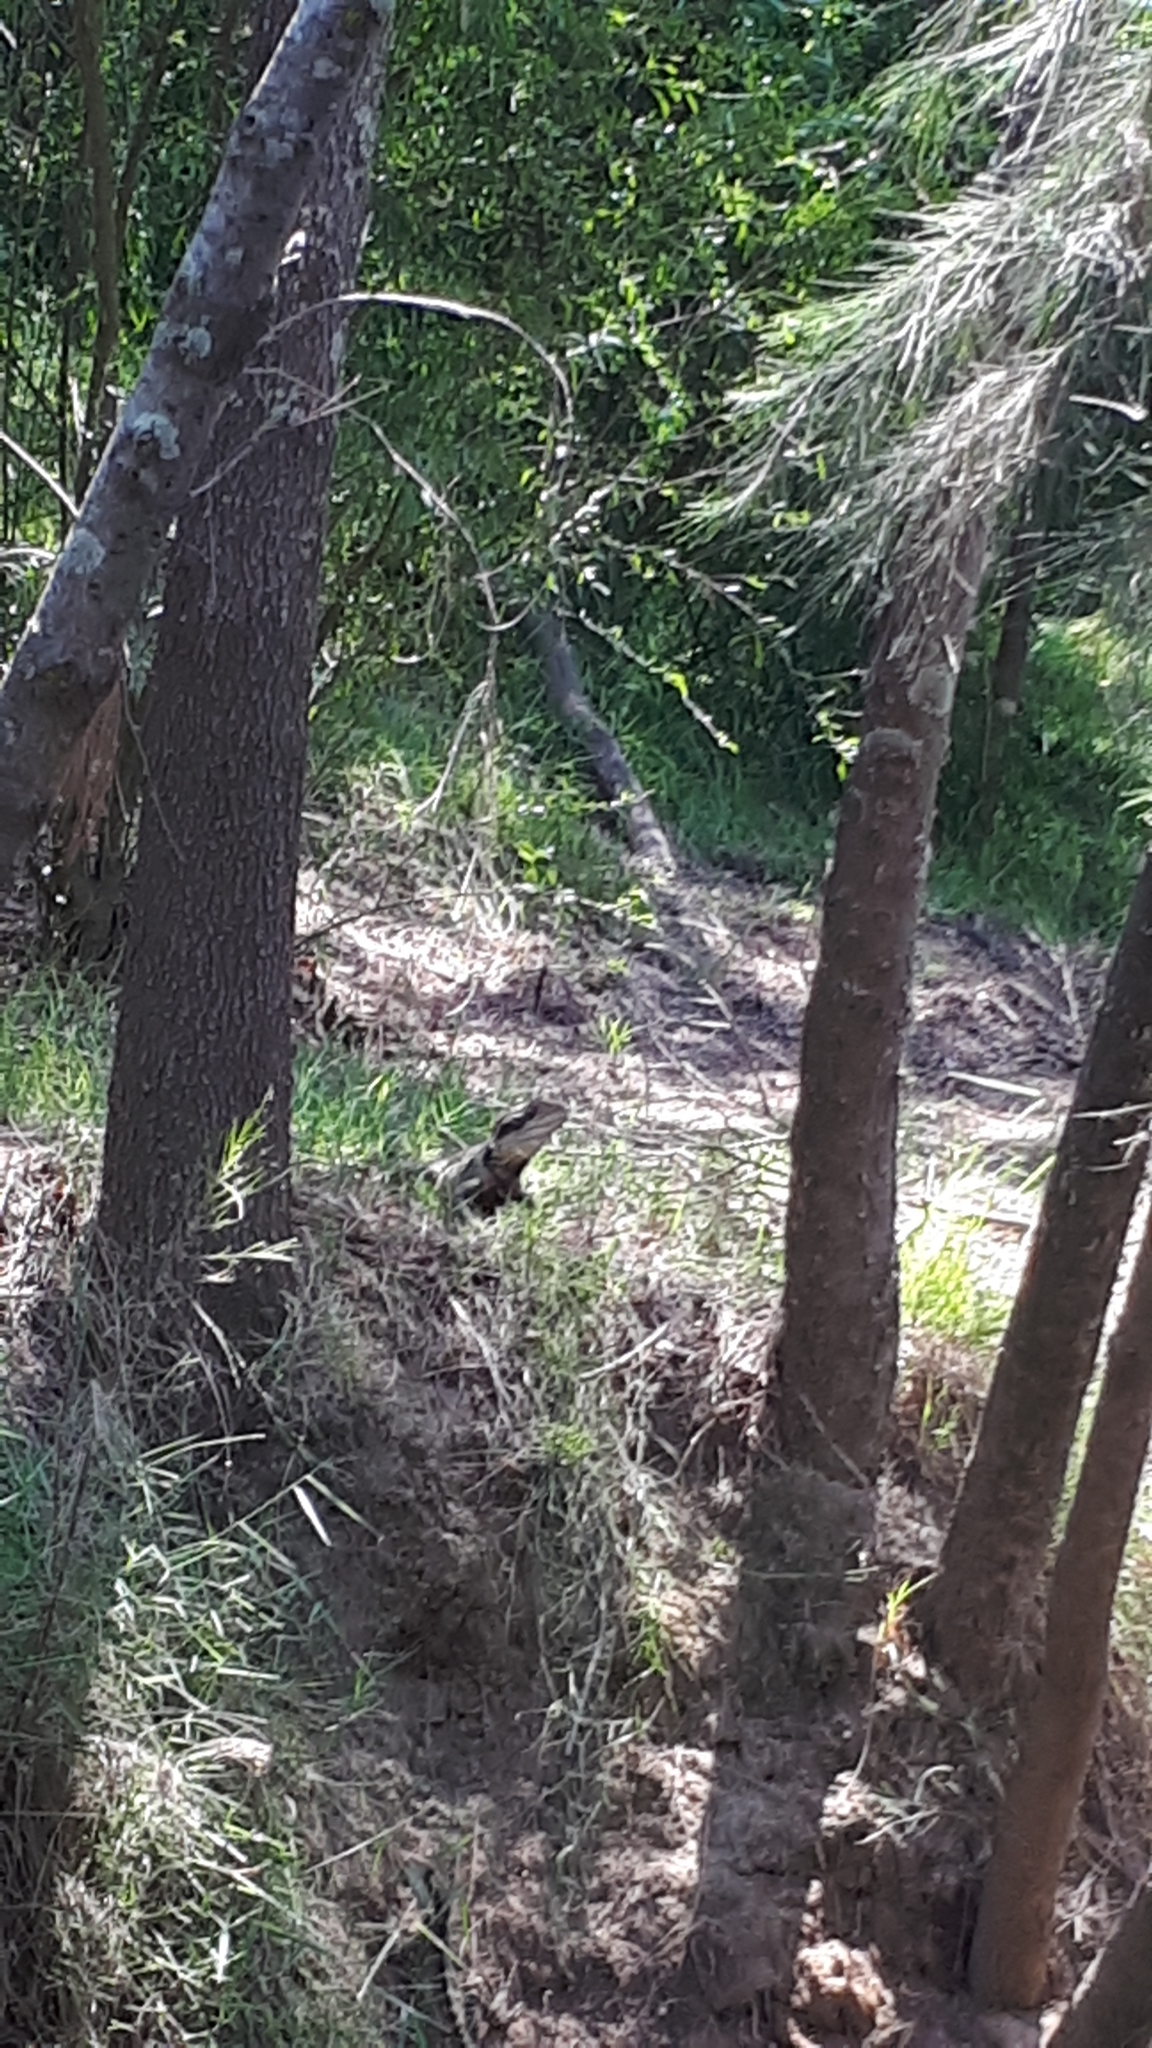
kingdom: Animalia
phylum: Chordata
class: Squamata
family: Agamidae
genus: Intellagama
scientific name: Intellagama lesueurii
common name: Eastern water dragon
